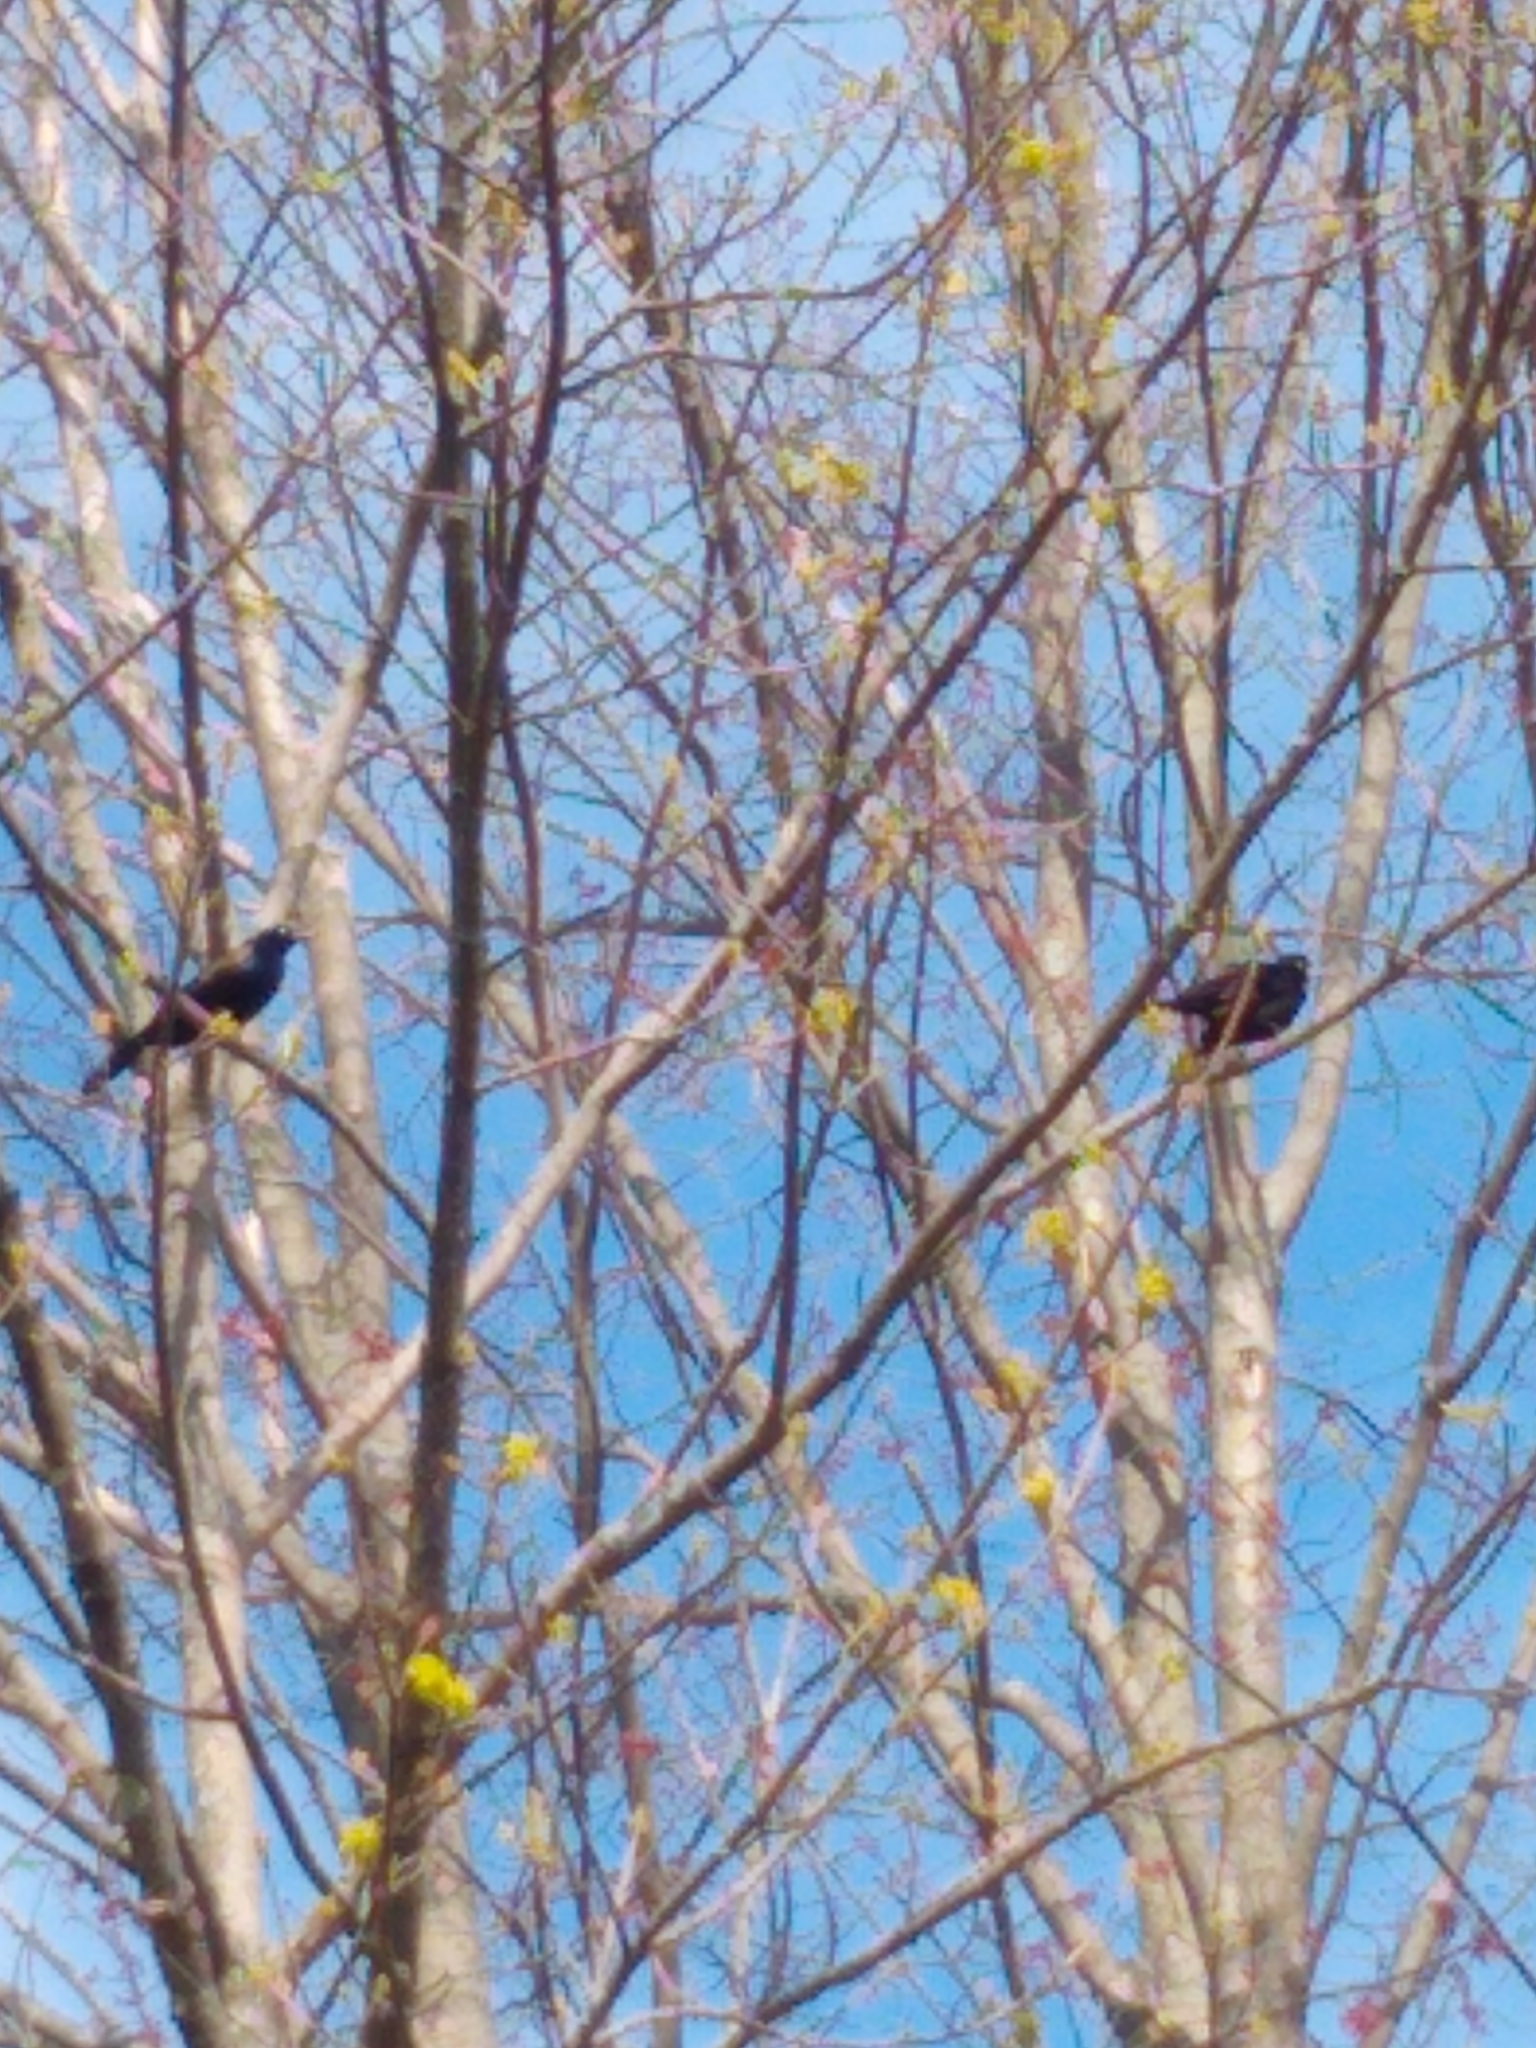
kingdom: Animalia
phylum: Chordata
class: Aves
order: Passeriformes
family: Icteridae
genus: Quiscalus
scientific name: Quiscalus quiscula
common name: Common grackle
